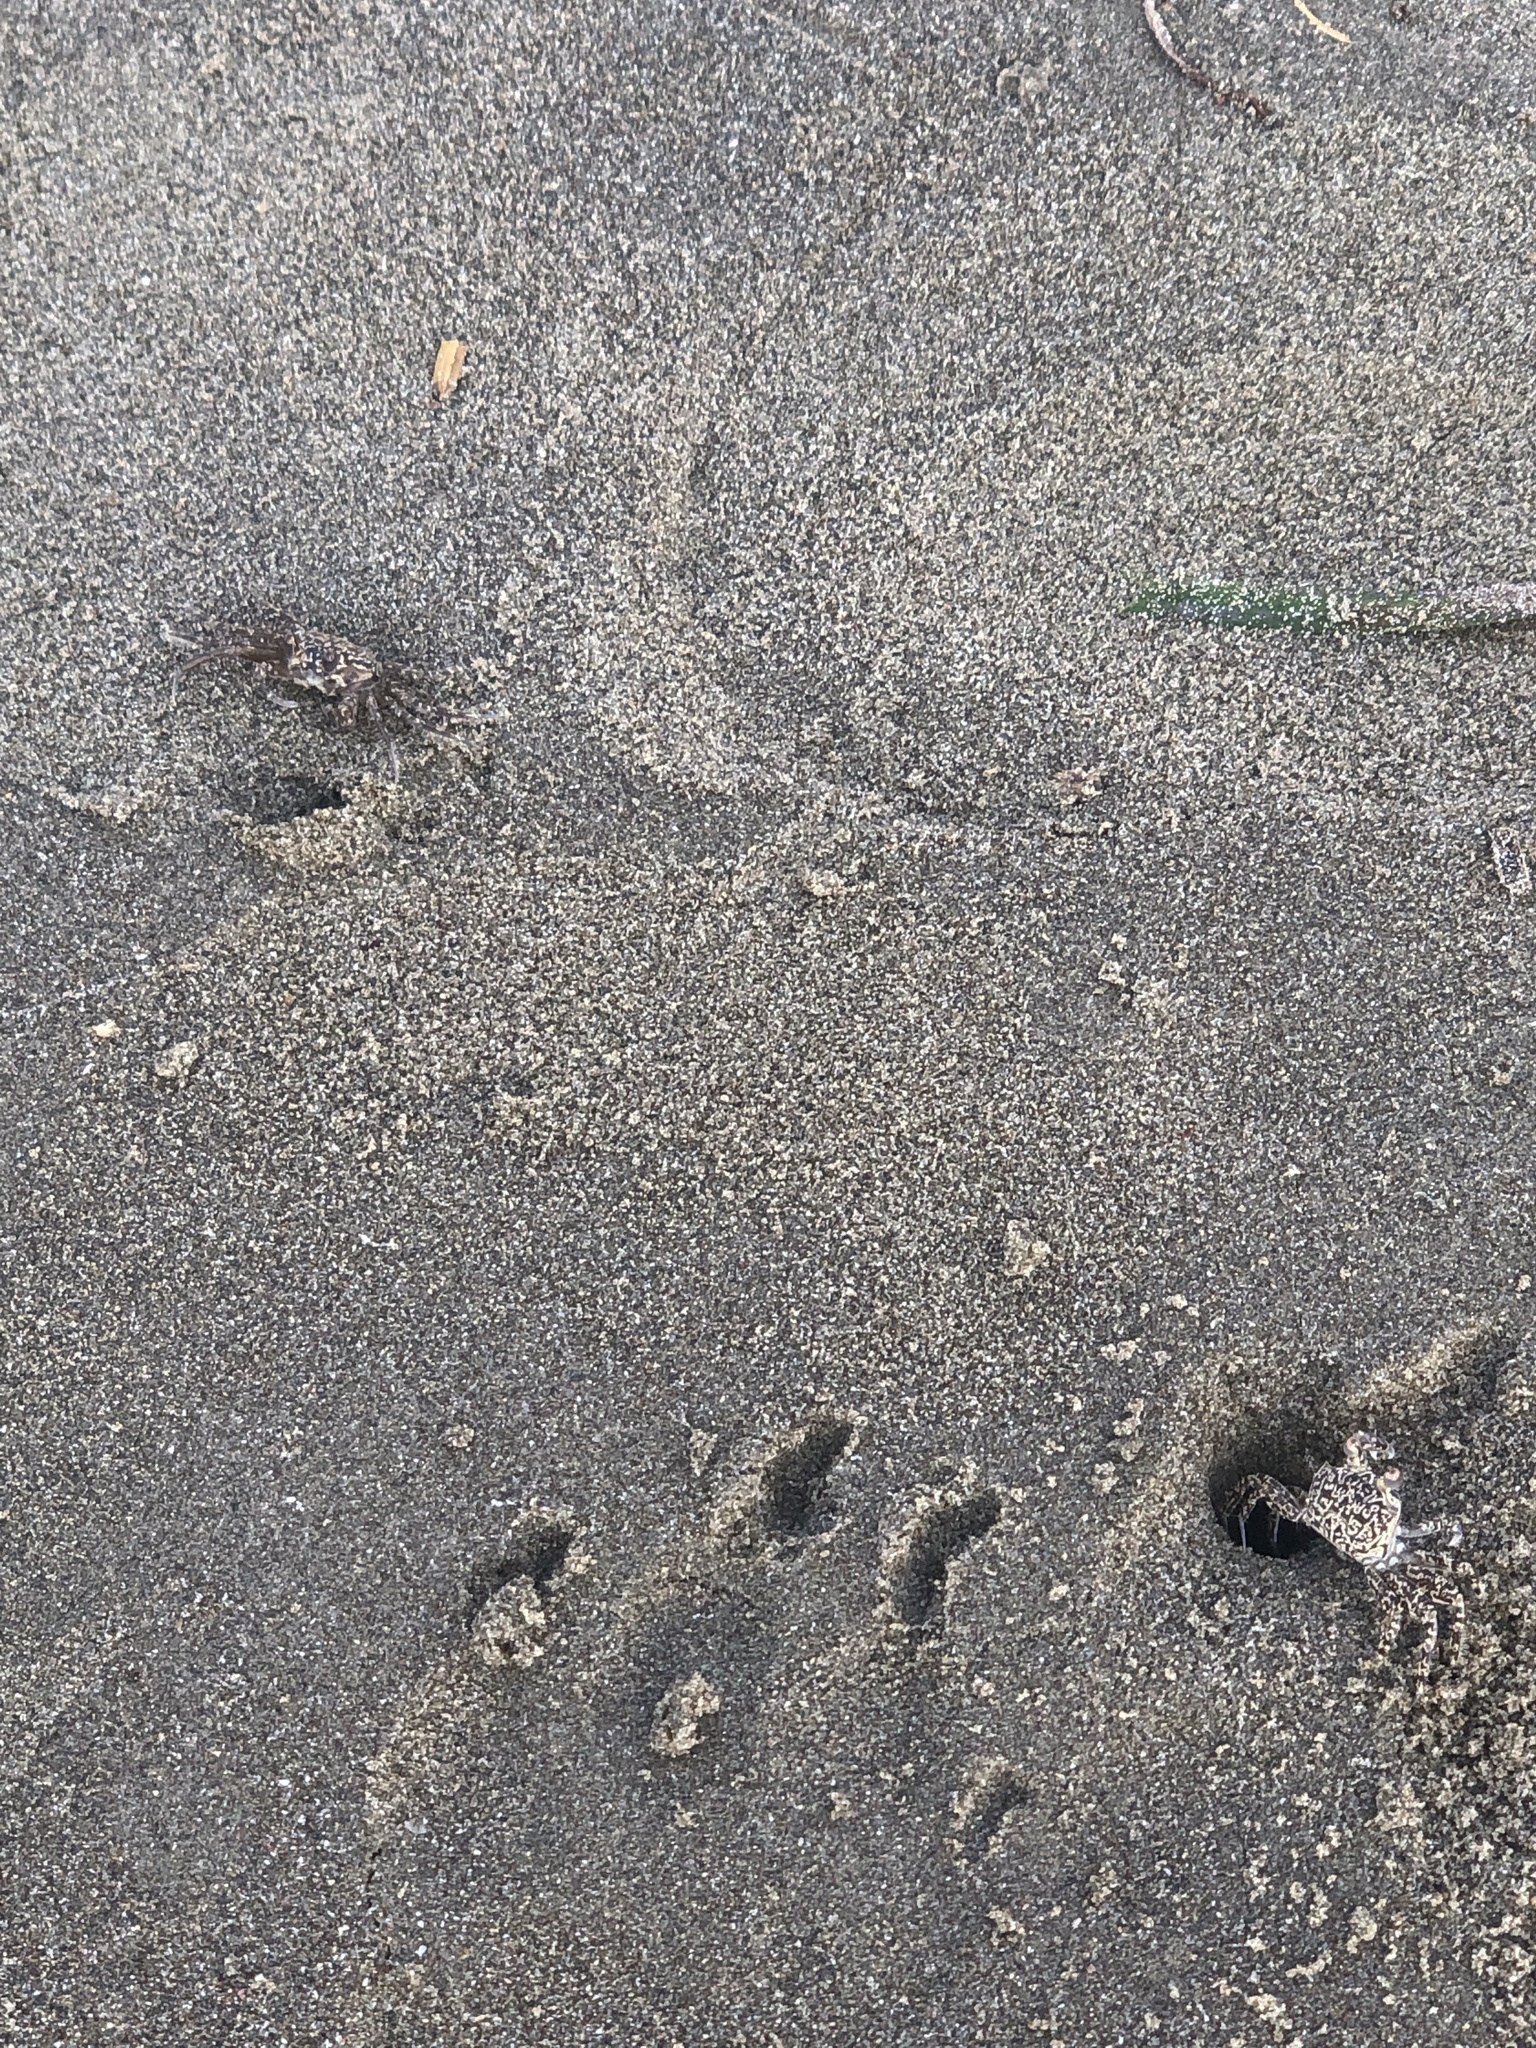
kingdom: Animalia
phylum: Arthropoda
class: Malacostraca
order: Decapoda
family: Ocypodidae
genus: Ocypode
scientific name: Ocypode quadrata
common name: Ghost crab
